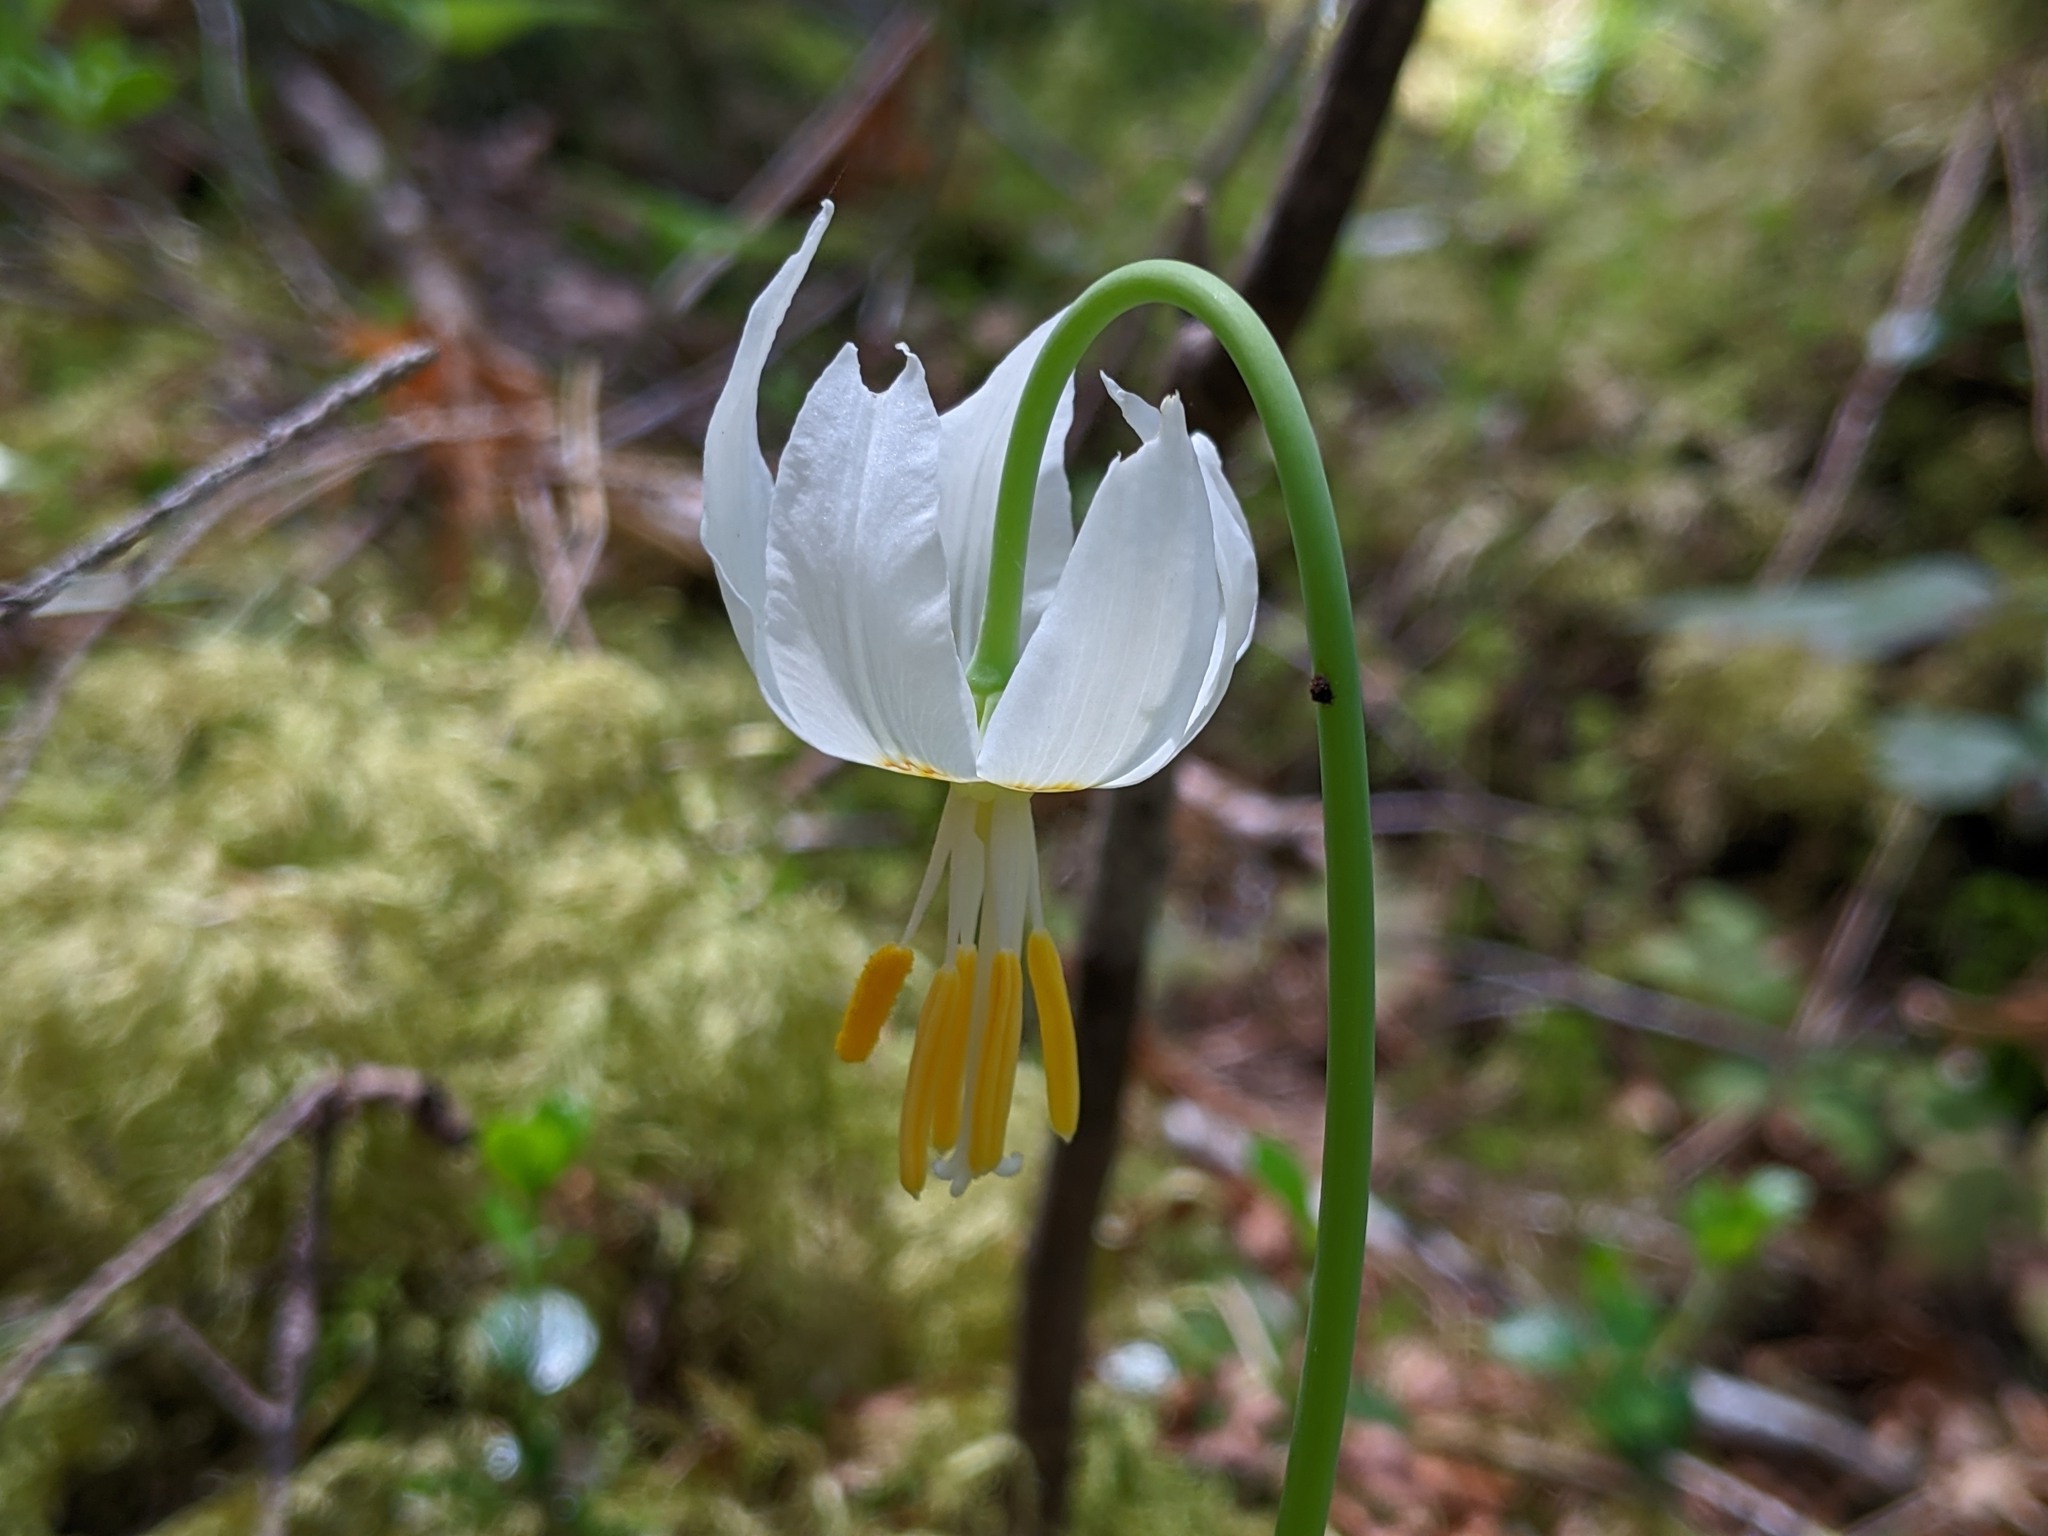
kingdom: Plantae
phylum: Tracheophyta
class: Liliopsida
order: Liliales
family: Liliaceae
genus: Erythronium
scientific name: Erythronium oregonum
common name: Giant adder's-tongue
